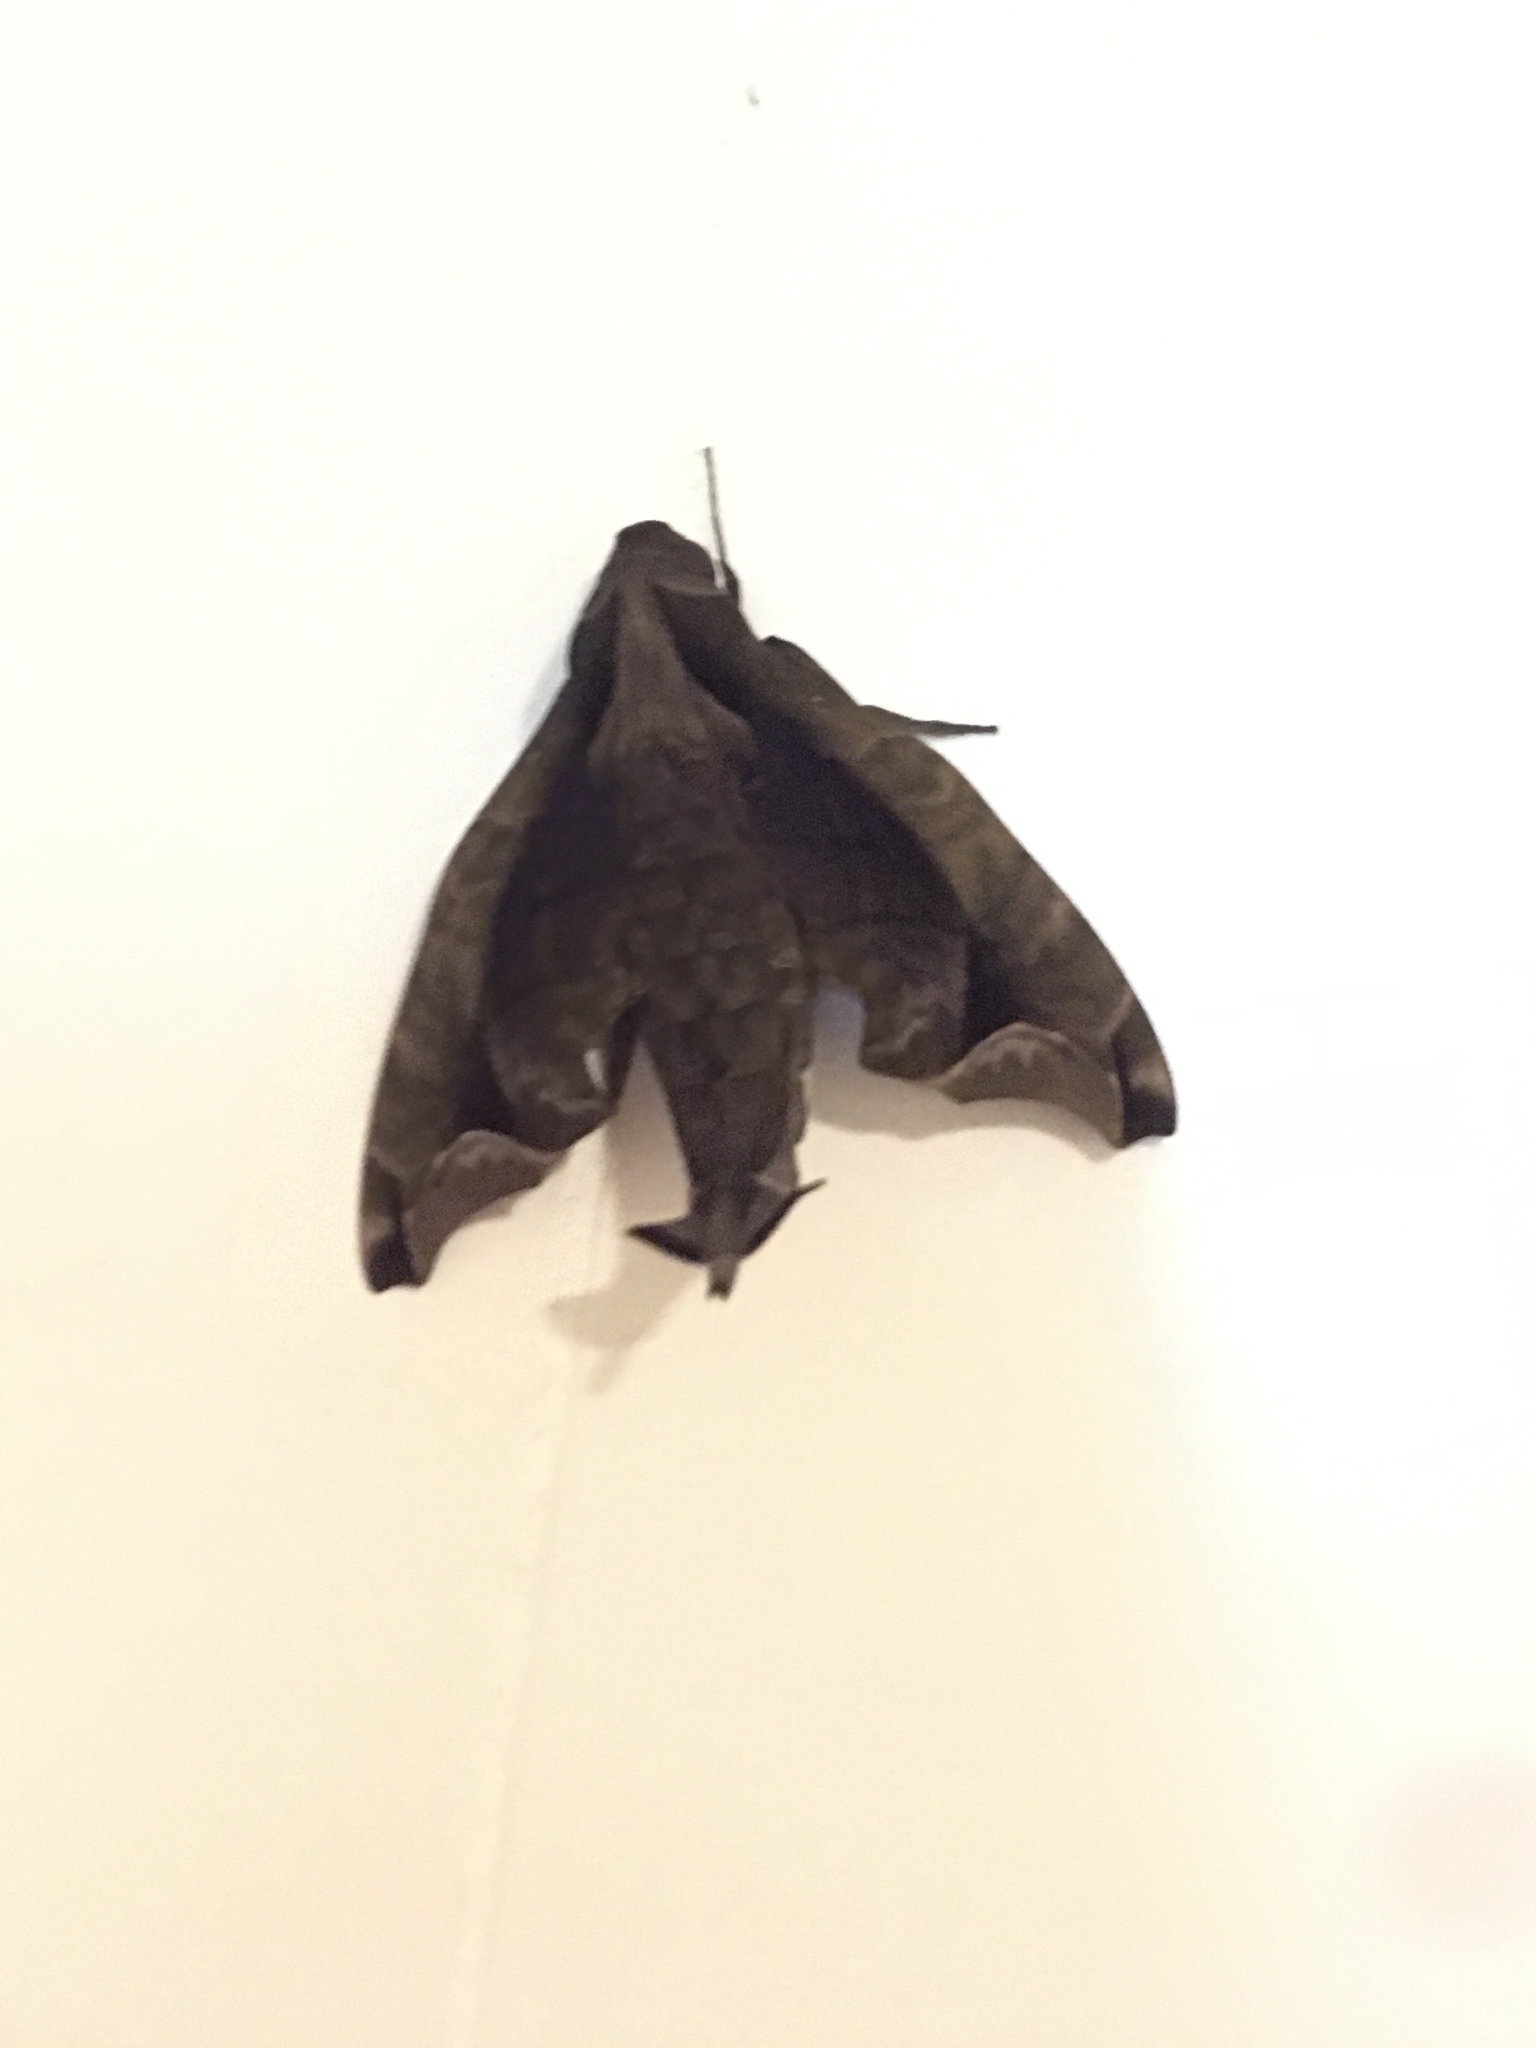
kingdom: Animalia
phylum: Arthropoda
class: Insecta
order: Lepidoptera
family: Sphingidae
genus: Enyo
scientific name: Enyo gorgon
